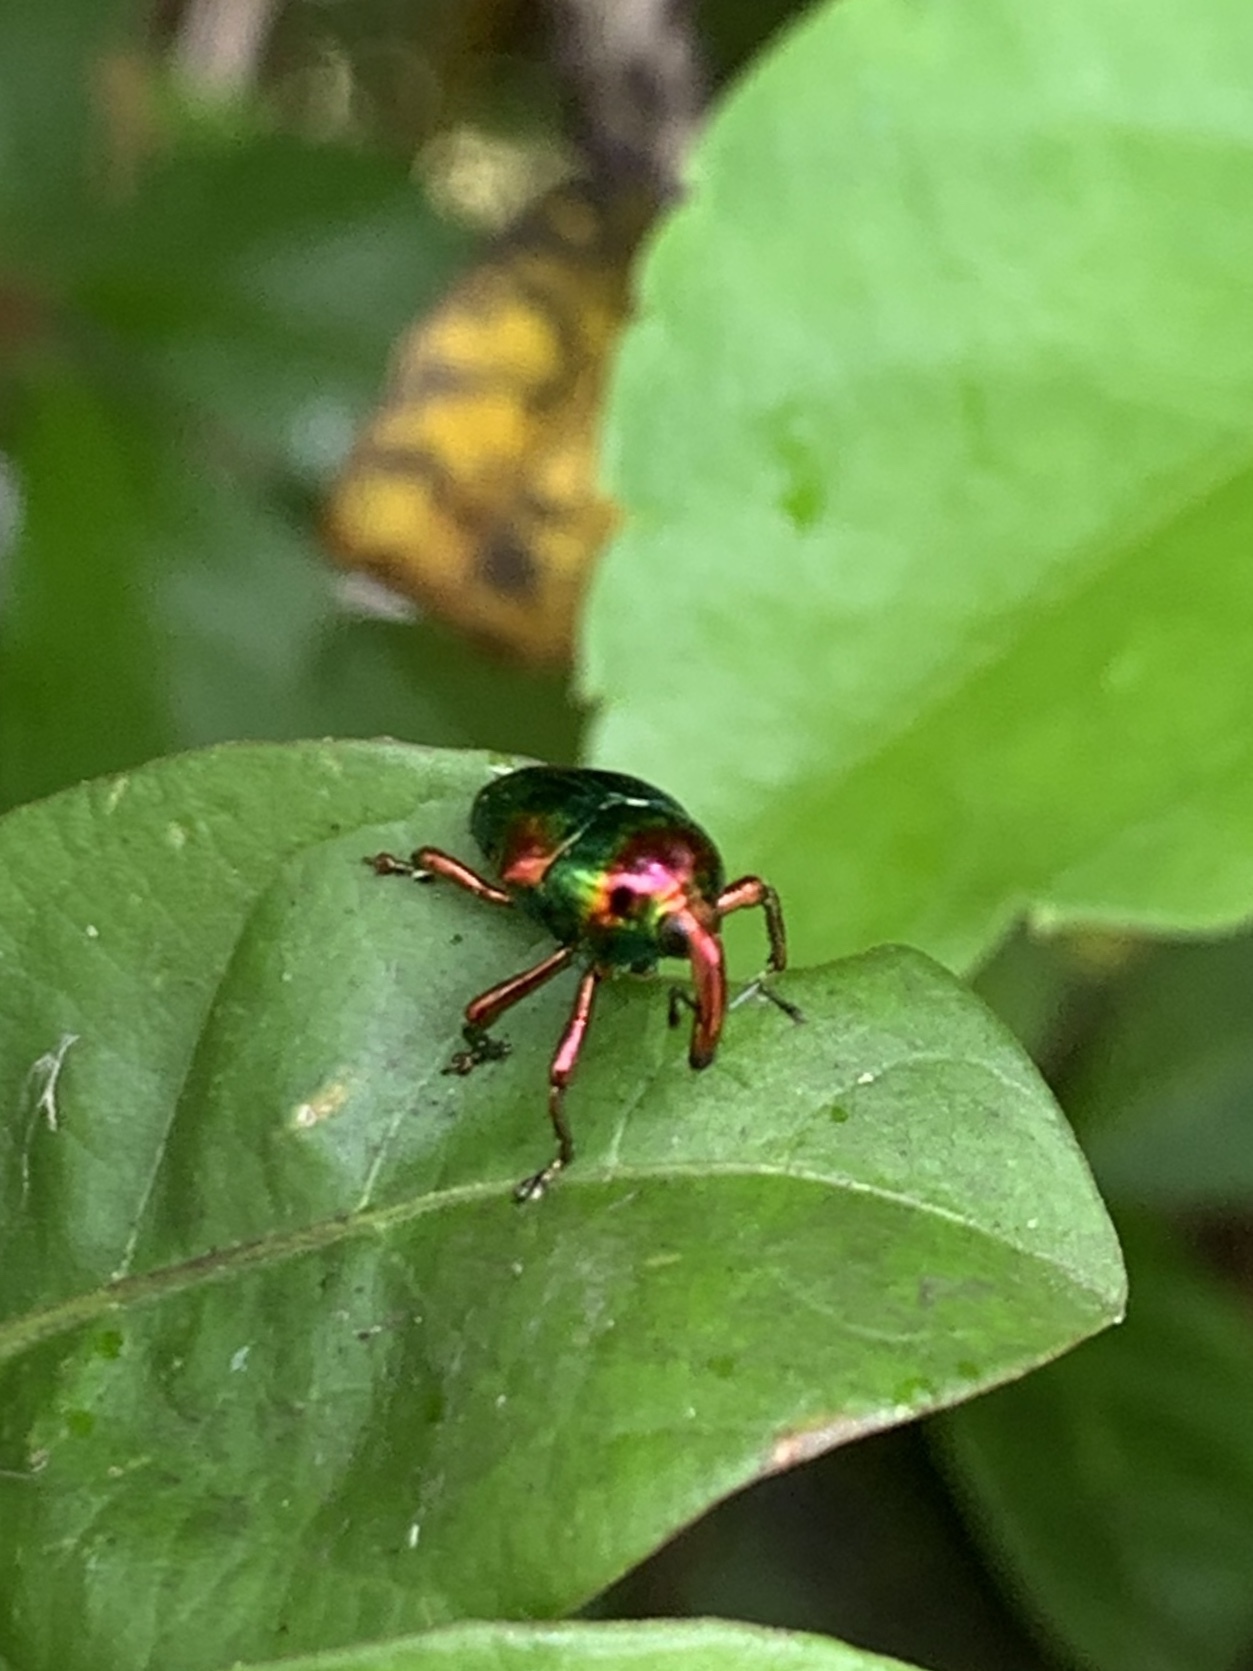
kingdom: Animalia
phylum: Arthropoda
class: Insecta
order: Coleoptera
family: Eurhynchidae
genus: Eurhinus
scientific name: Eurhinus magnificus
